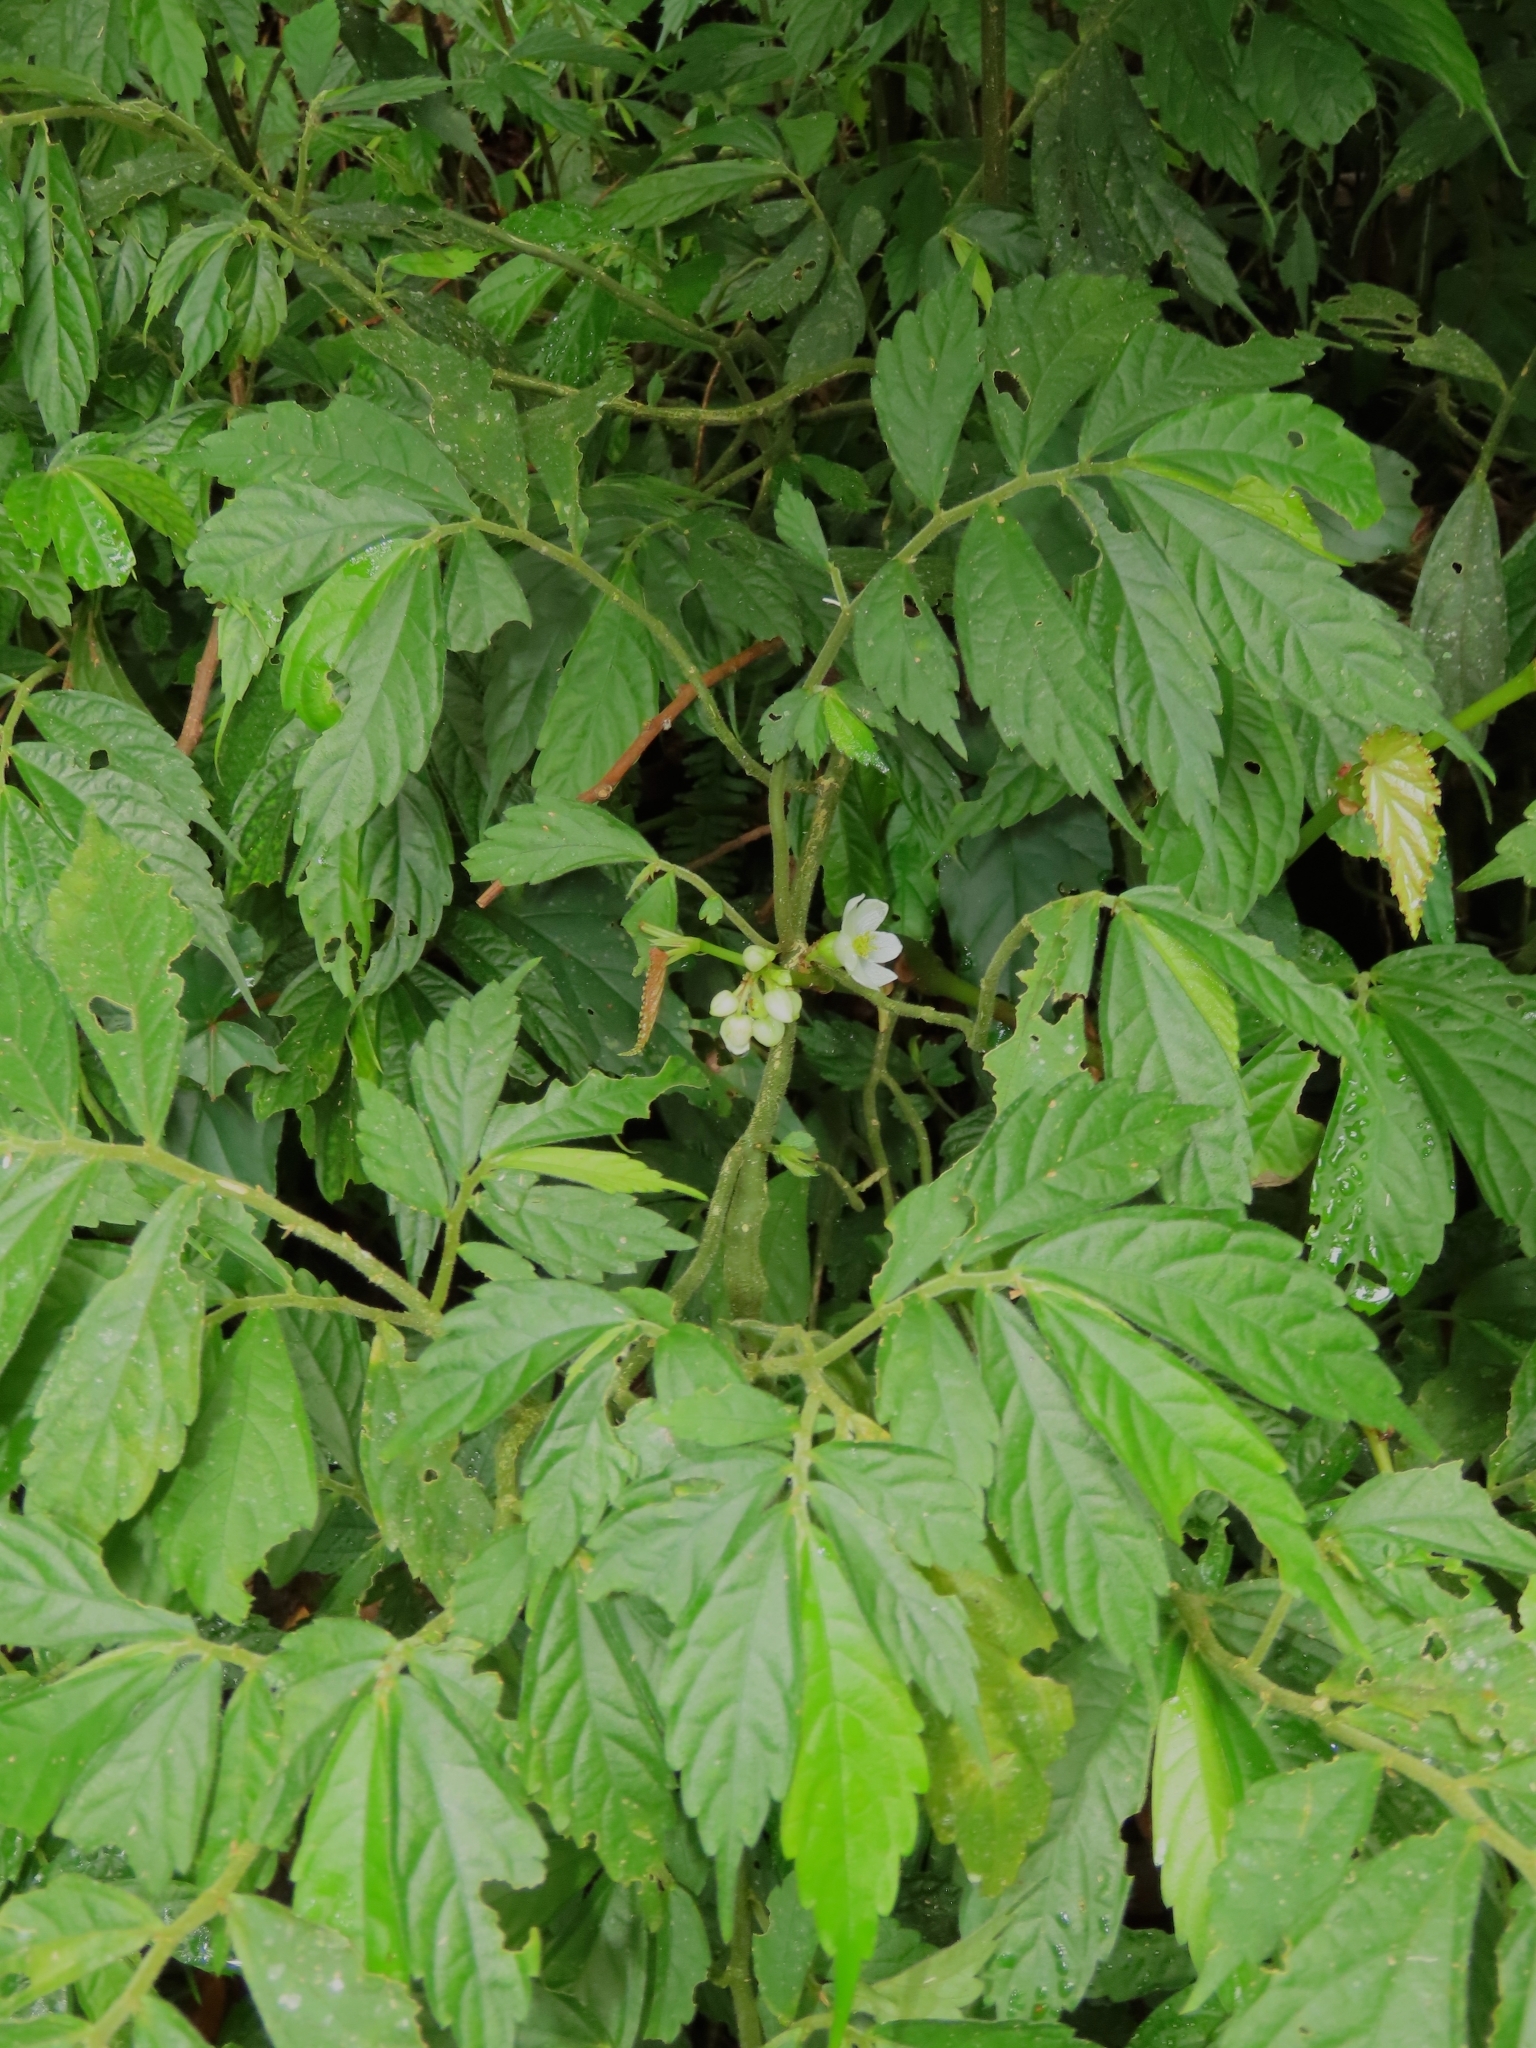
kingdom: Plantae
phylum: Tracheophyta
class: Magnoliopsida
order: Rosales
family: Urticaceae
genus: Elatostema
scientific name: Elatostema lineolatum
